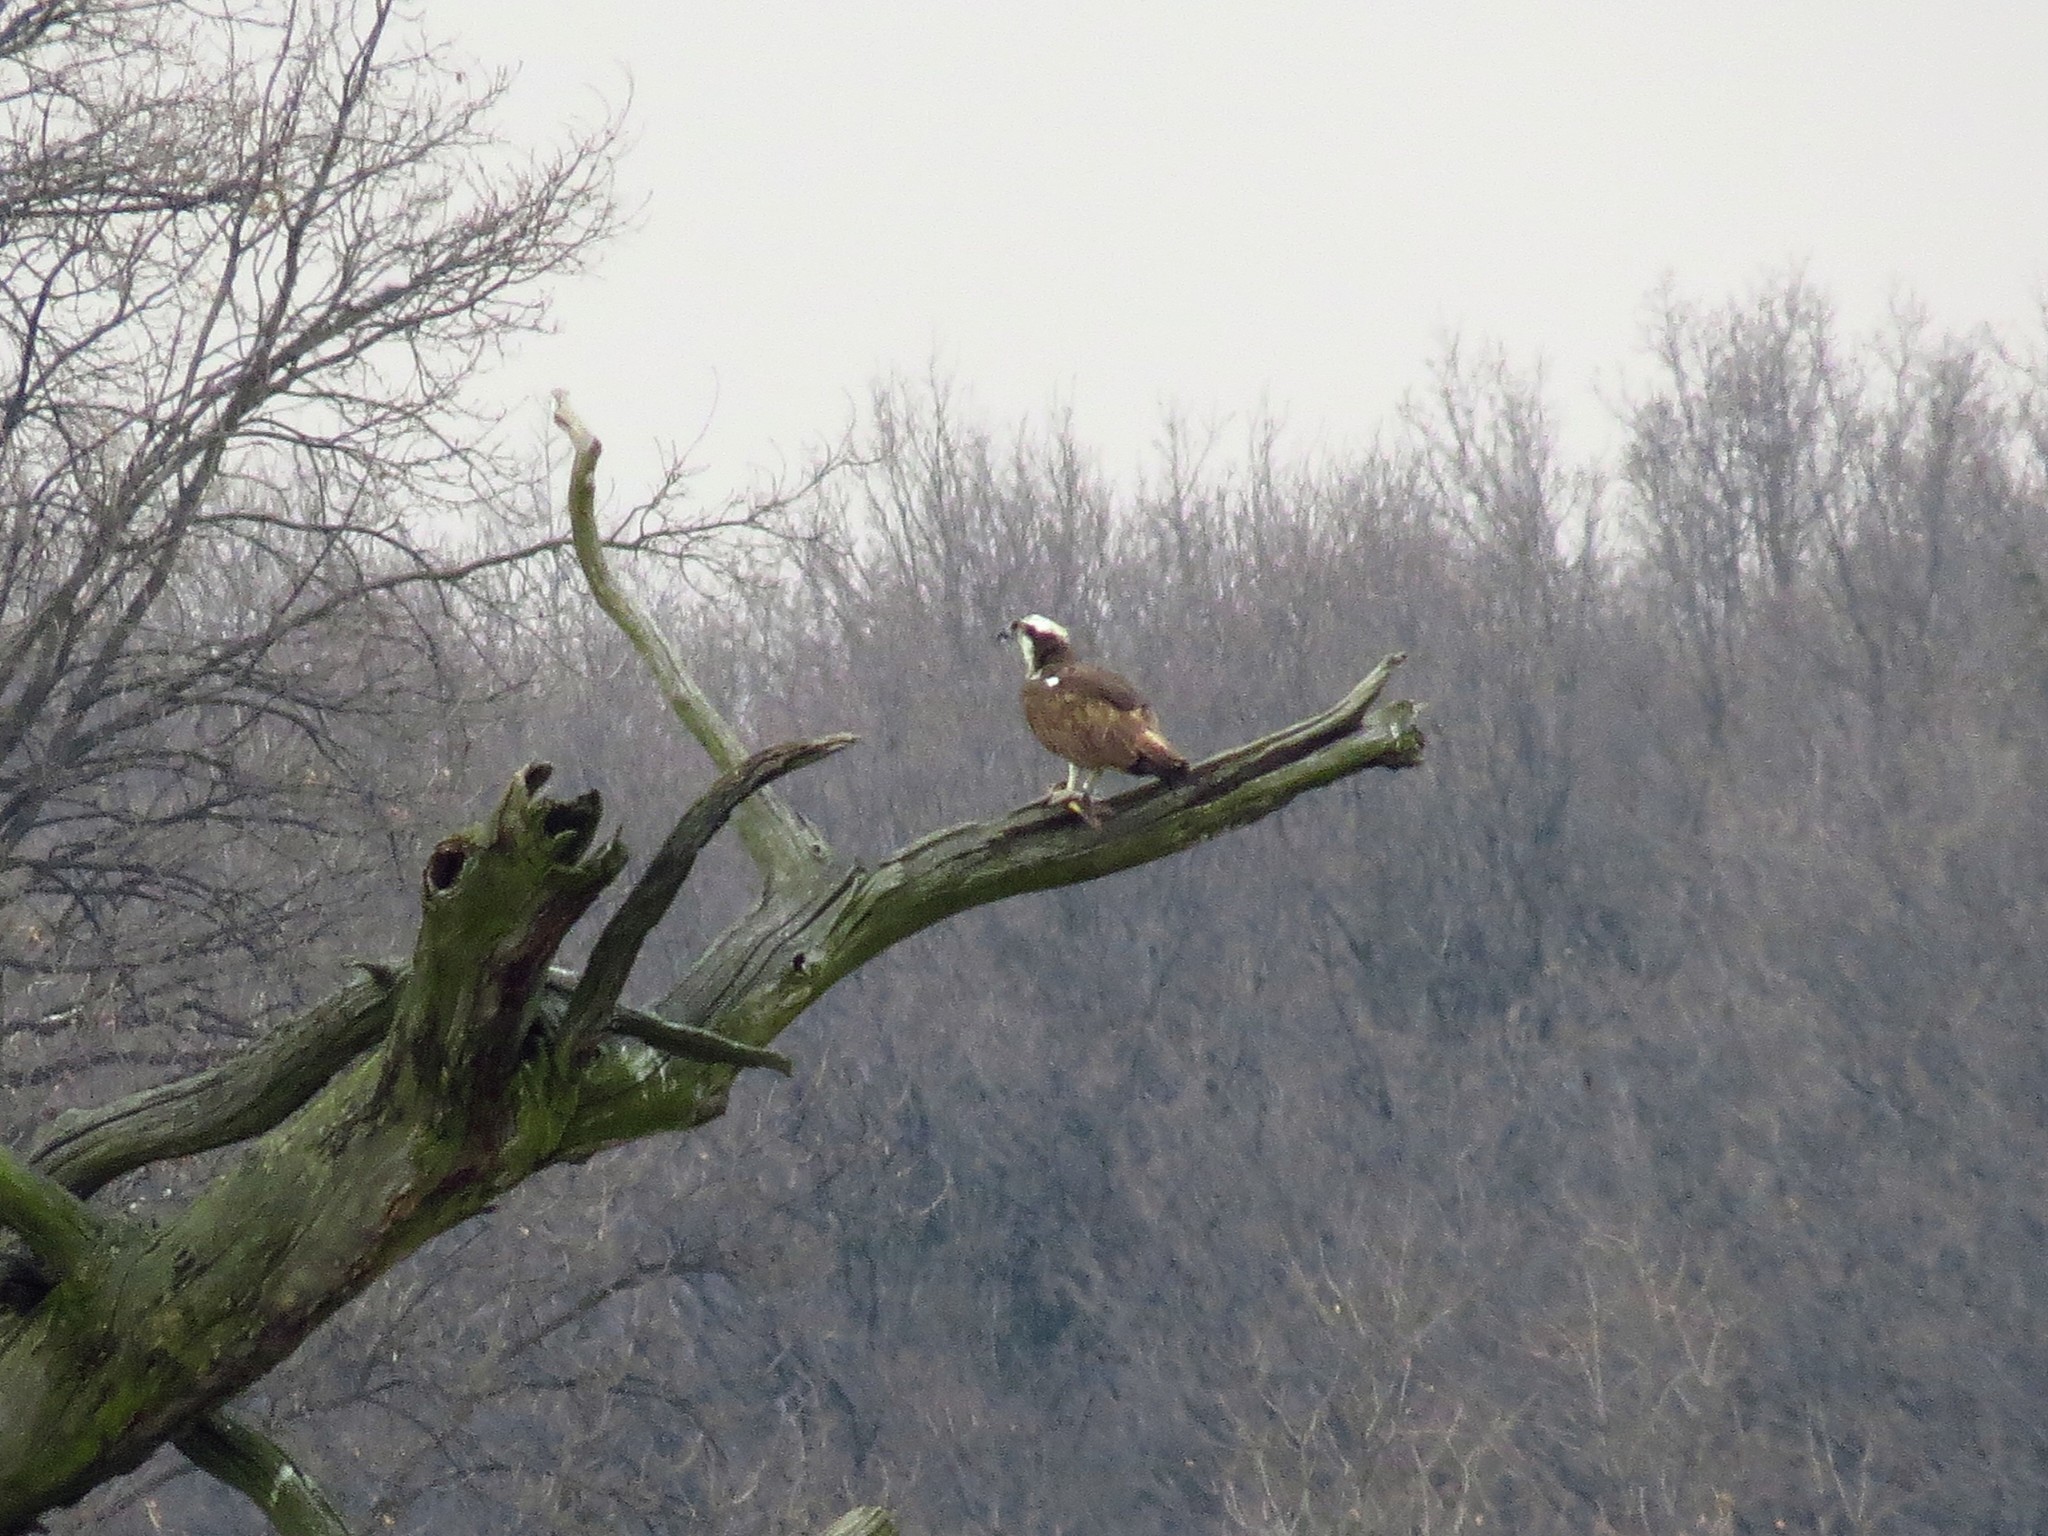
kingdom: Animalia
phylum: Chordata
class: Aves
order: Accipitriformes
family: Pandionidae
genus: Pandion
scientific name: Pandion haliaetus
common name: Osprey
